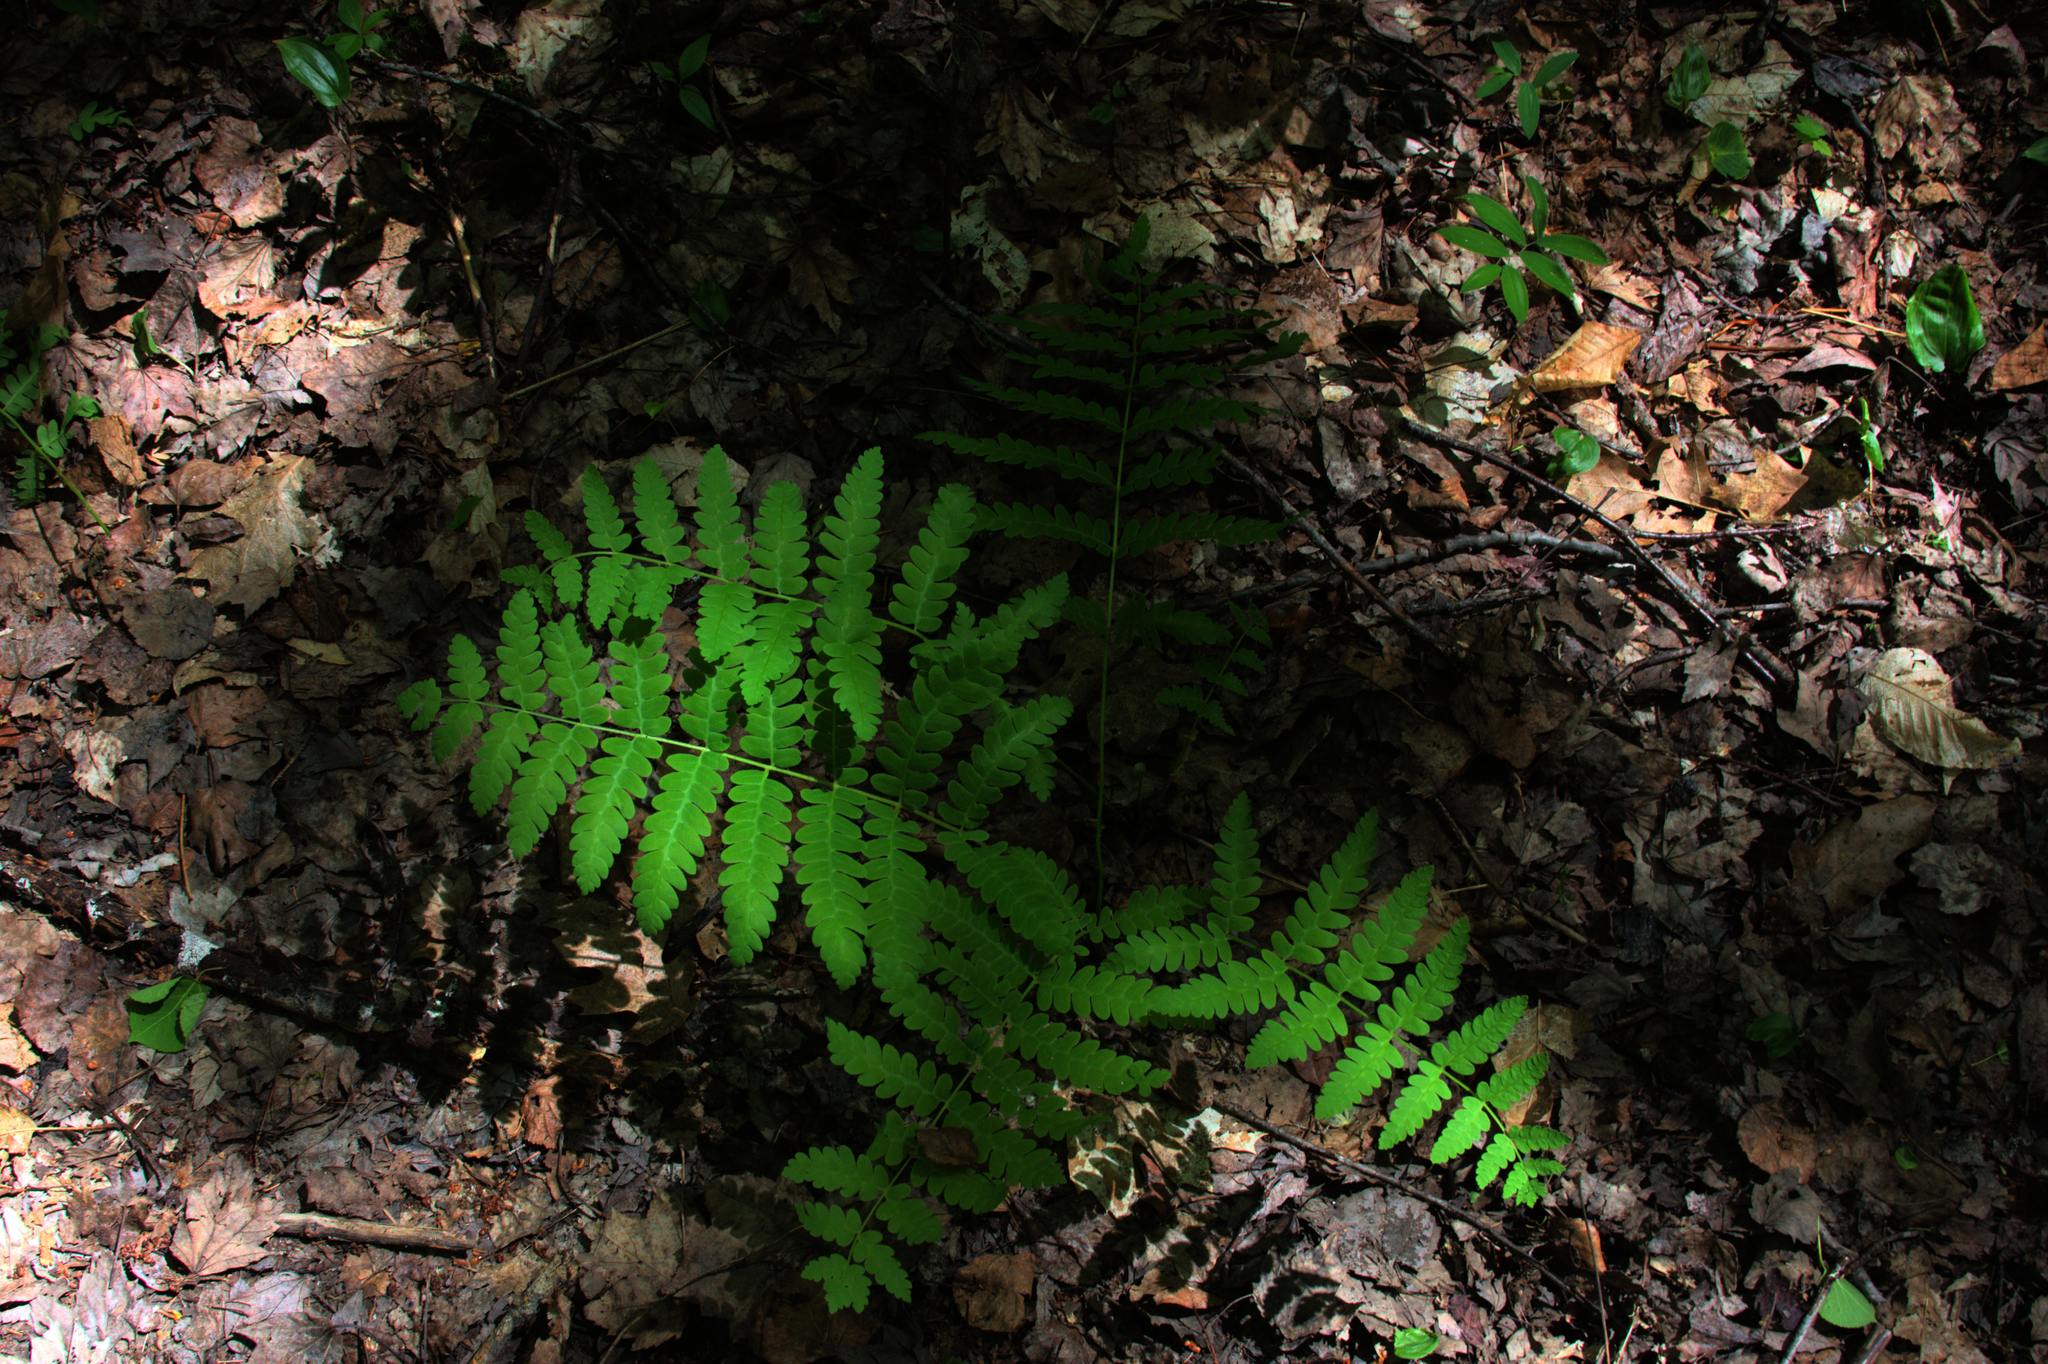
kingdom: Plantae
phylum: Tracheophyta
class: Polypodiopsida
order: Osmundales
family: Osmundaceae
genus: Claytosmunda
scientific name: Claytosmunda claytoniana
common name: Clayton's fern
